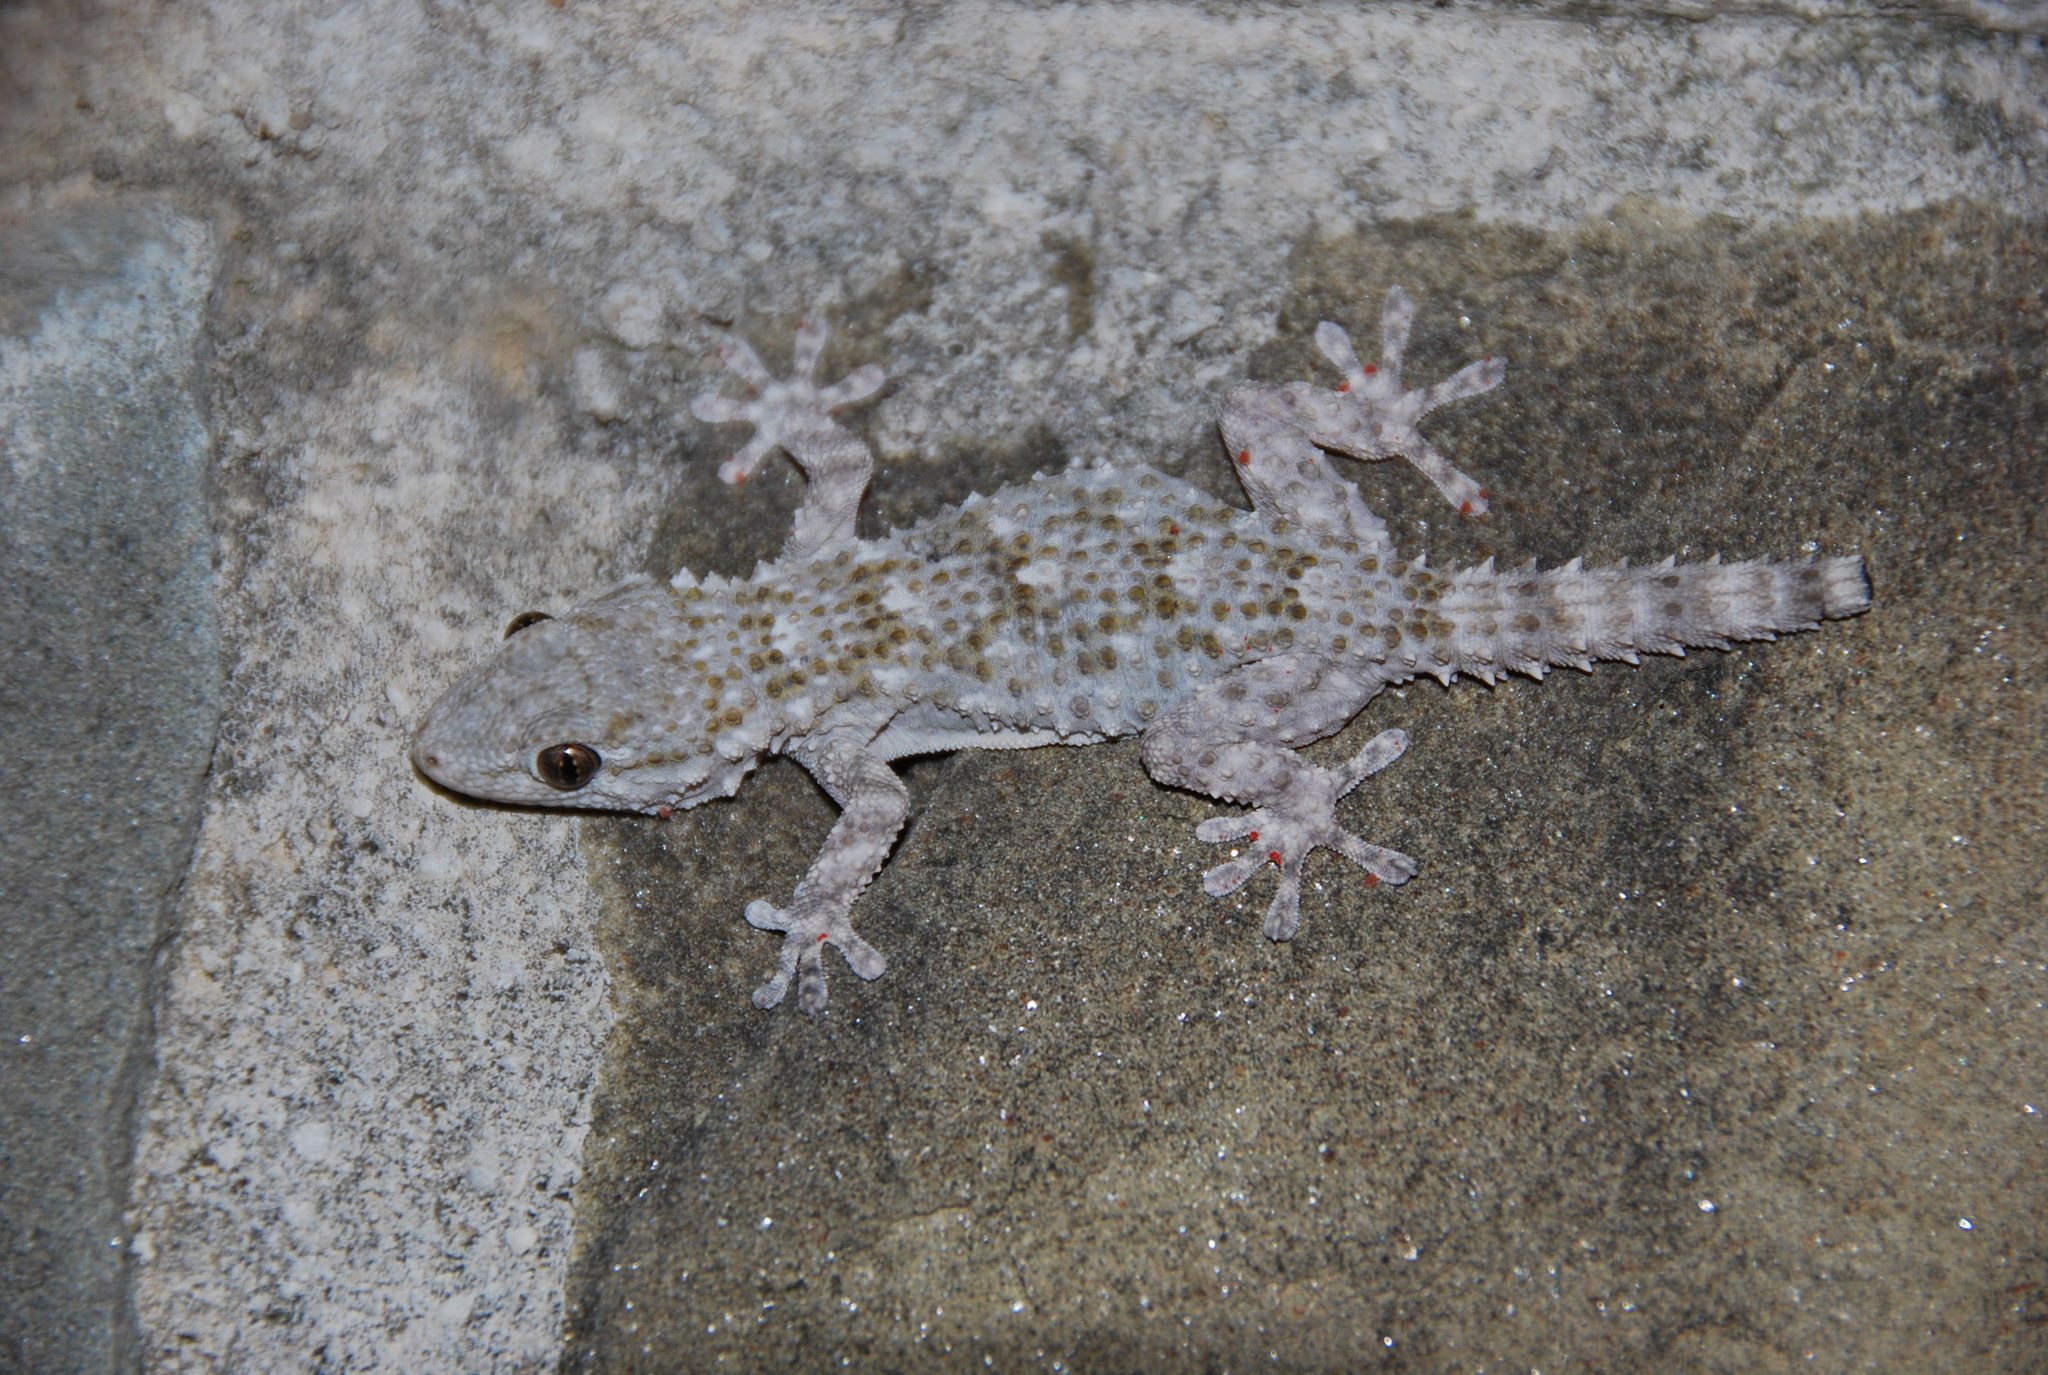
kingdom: Animalia
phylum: Chordata
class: Squamata
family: Phyllodactylidae
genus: Tarentola
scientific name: Tarentola mauritanica
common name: Moorish gecko
